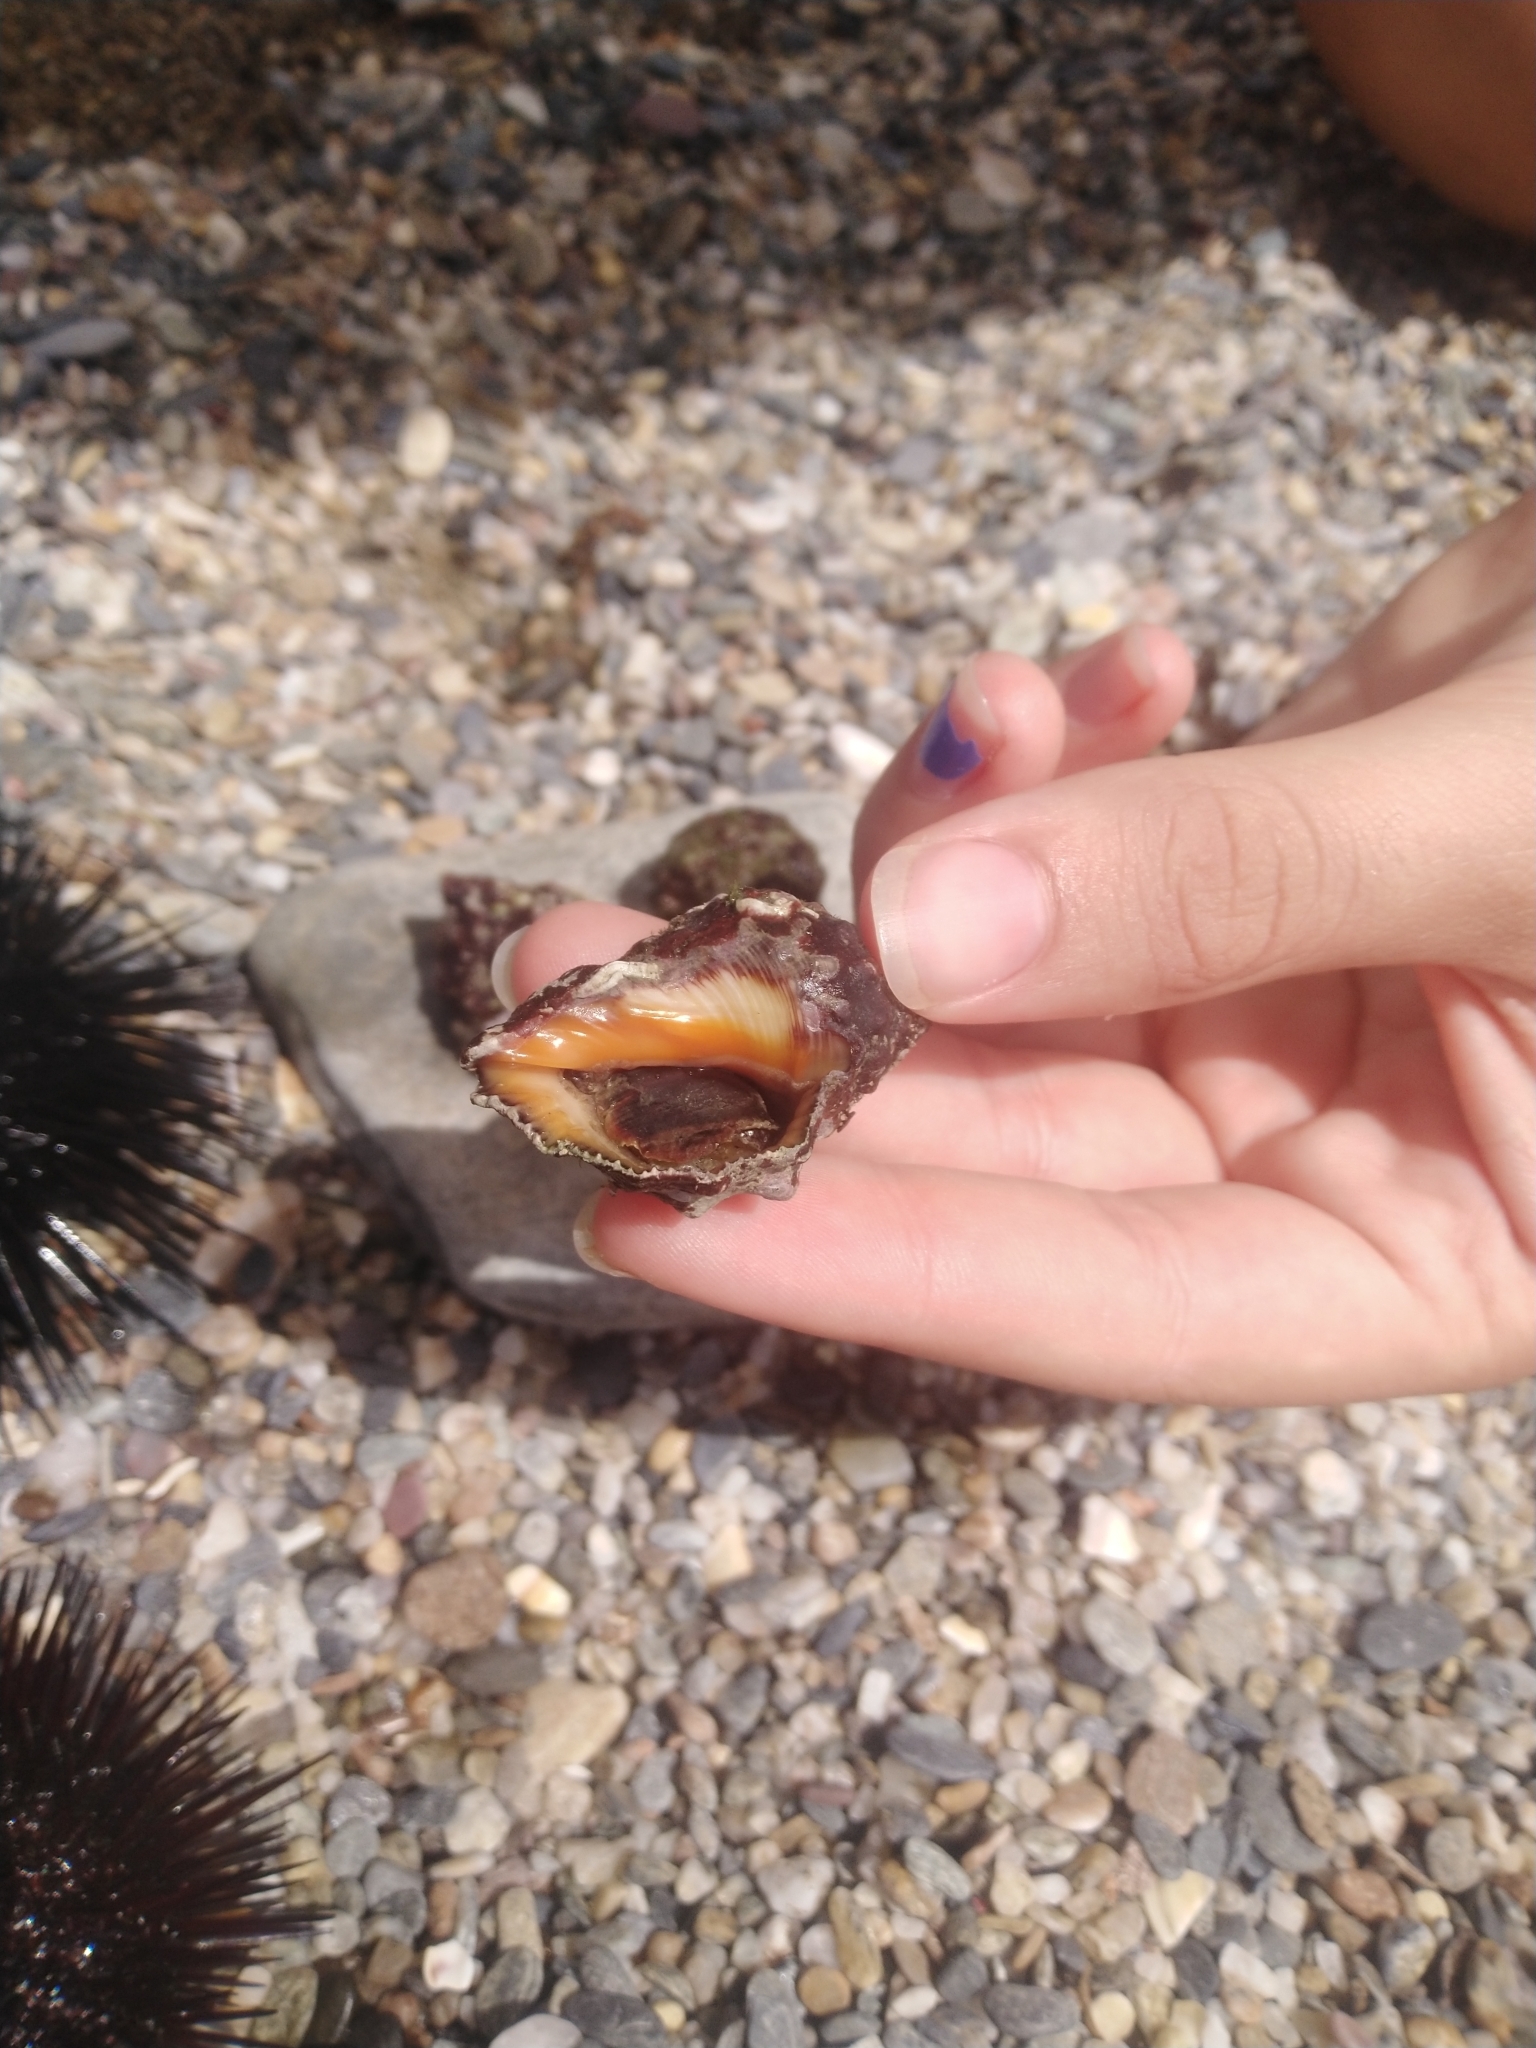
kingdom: Animalia
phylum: Mollusca
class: Gastropoda
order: Neogastropoda
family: Muricidae
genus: Stramonita
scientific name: Stramonita haemastoma
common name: Florida dog winkle
